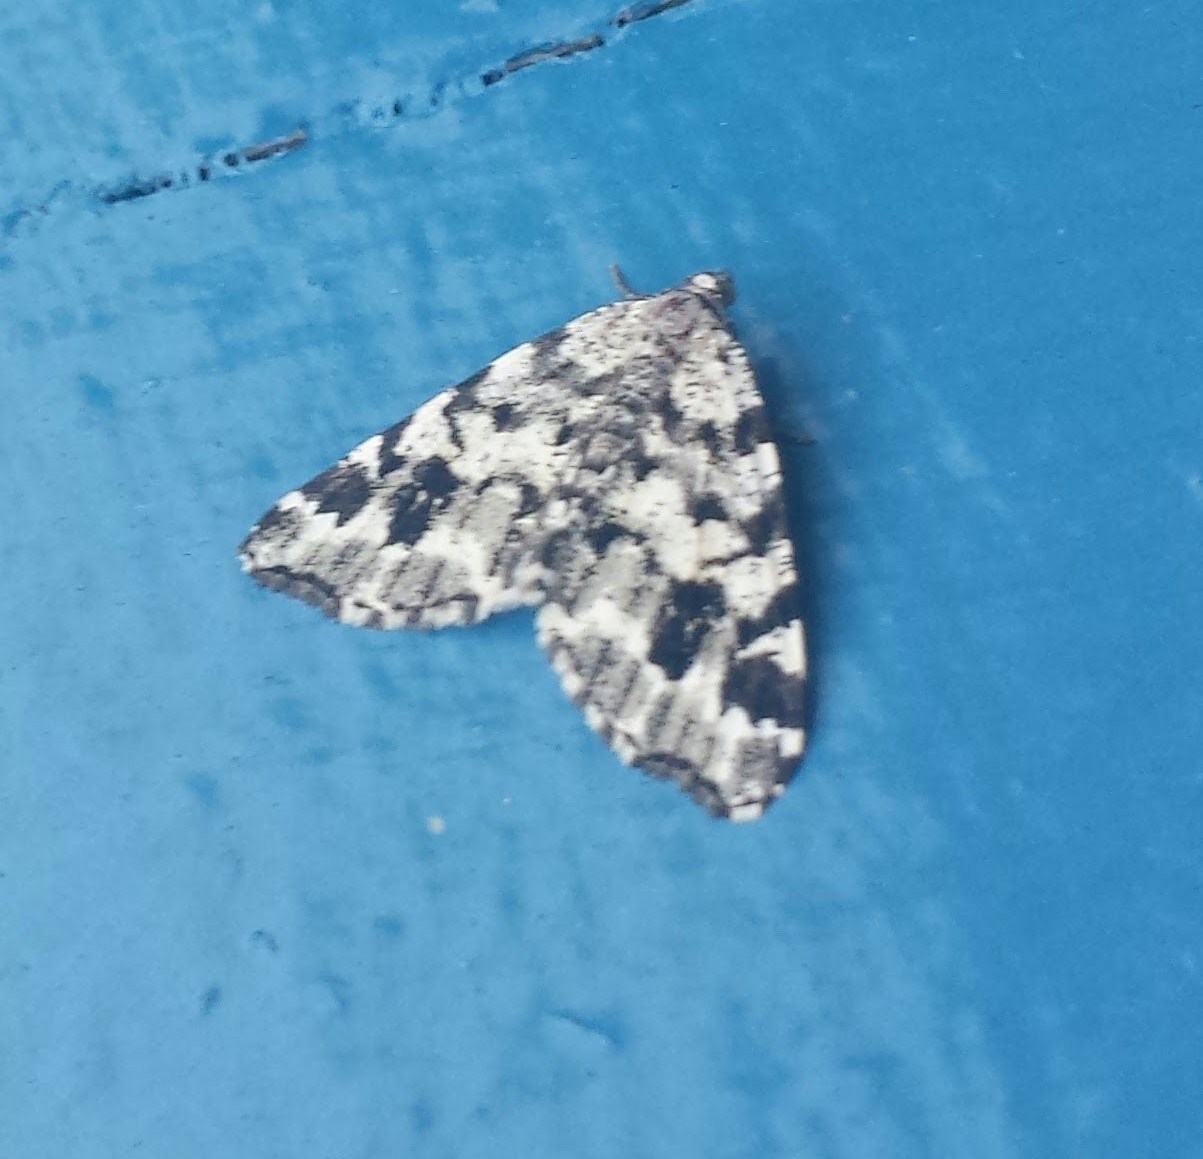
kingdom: Animalia
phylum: Arthropoda
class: Insecta
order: Lepidoptera
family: Geometridae
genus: Macaria
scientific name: Macaria oweni
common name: Owen's angle
